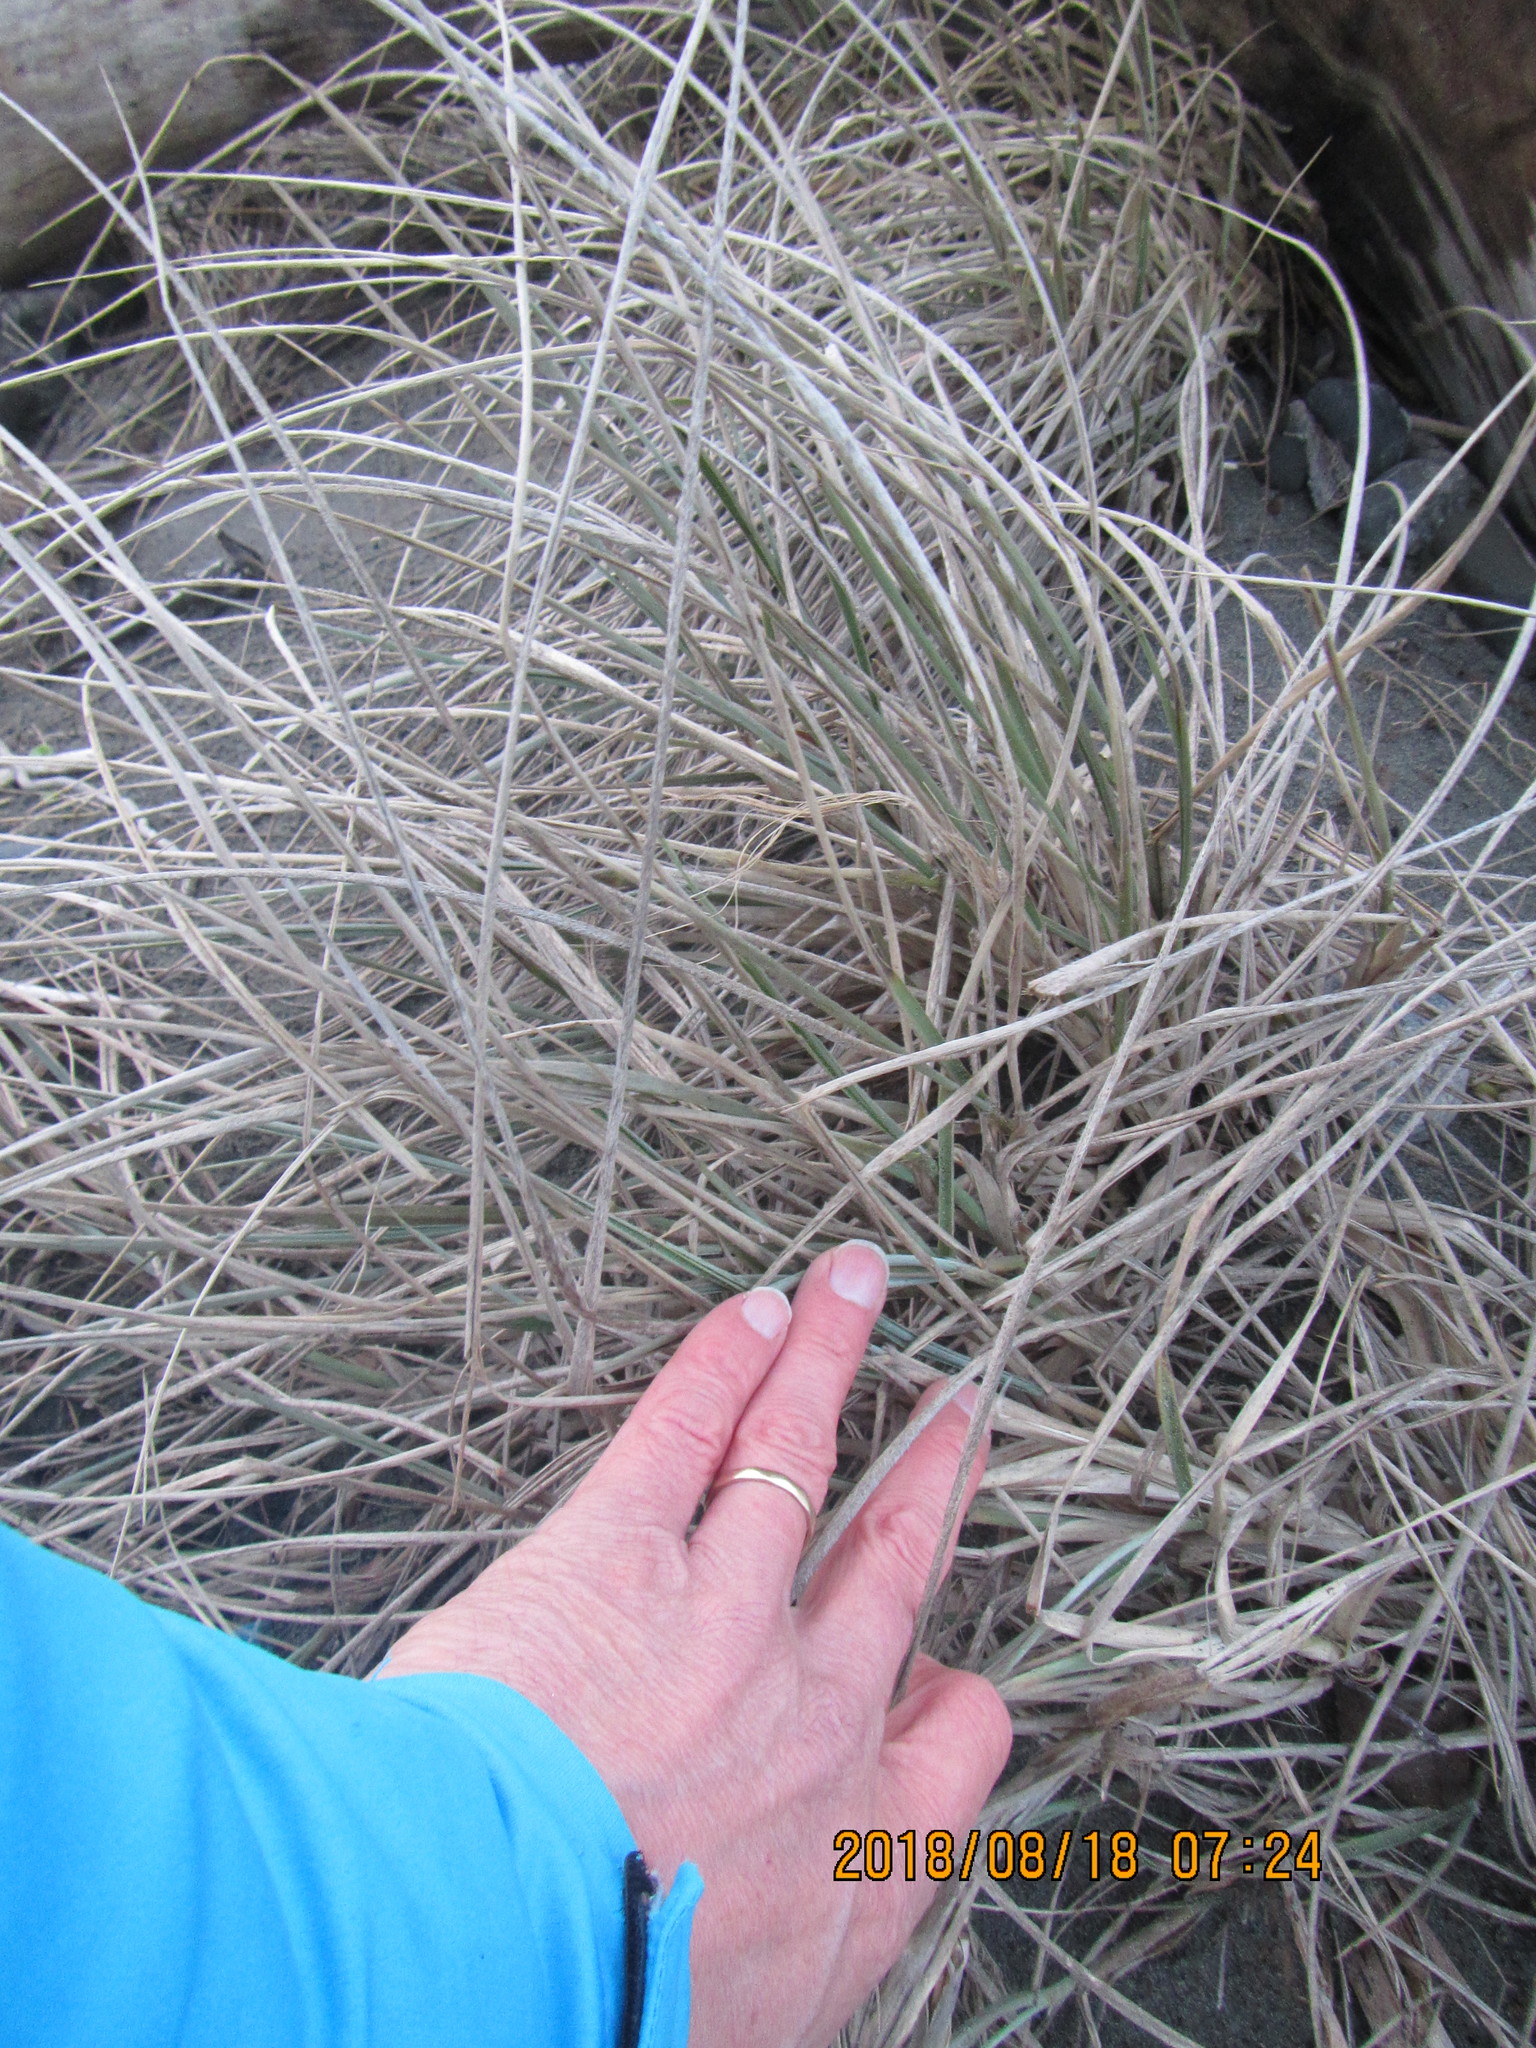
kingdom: Plantae
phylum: Tracheophyta
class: Liliopsida
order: Poales
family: Poaceae
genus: Spinifex
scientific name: Spinifex sericeus
